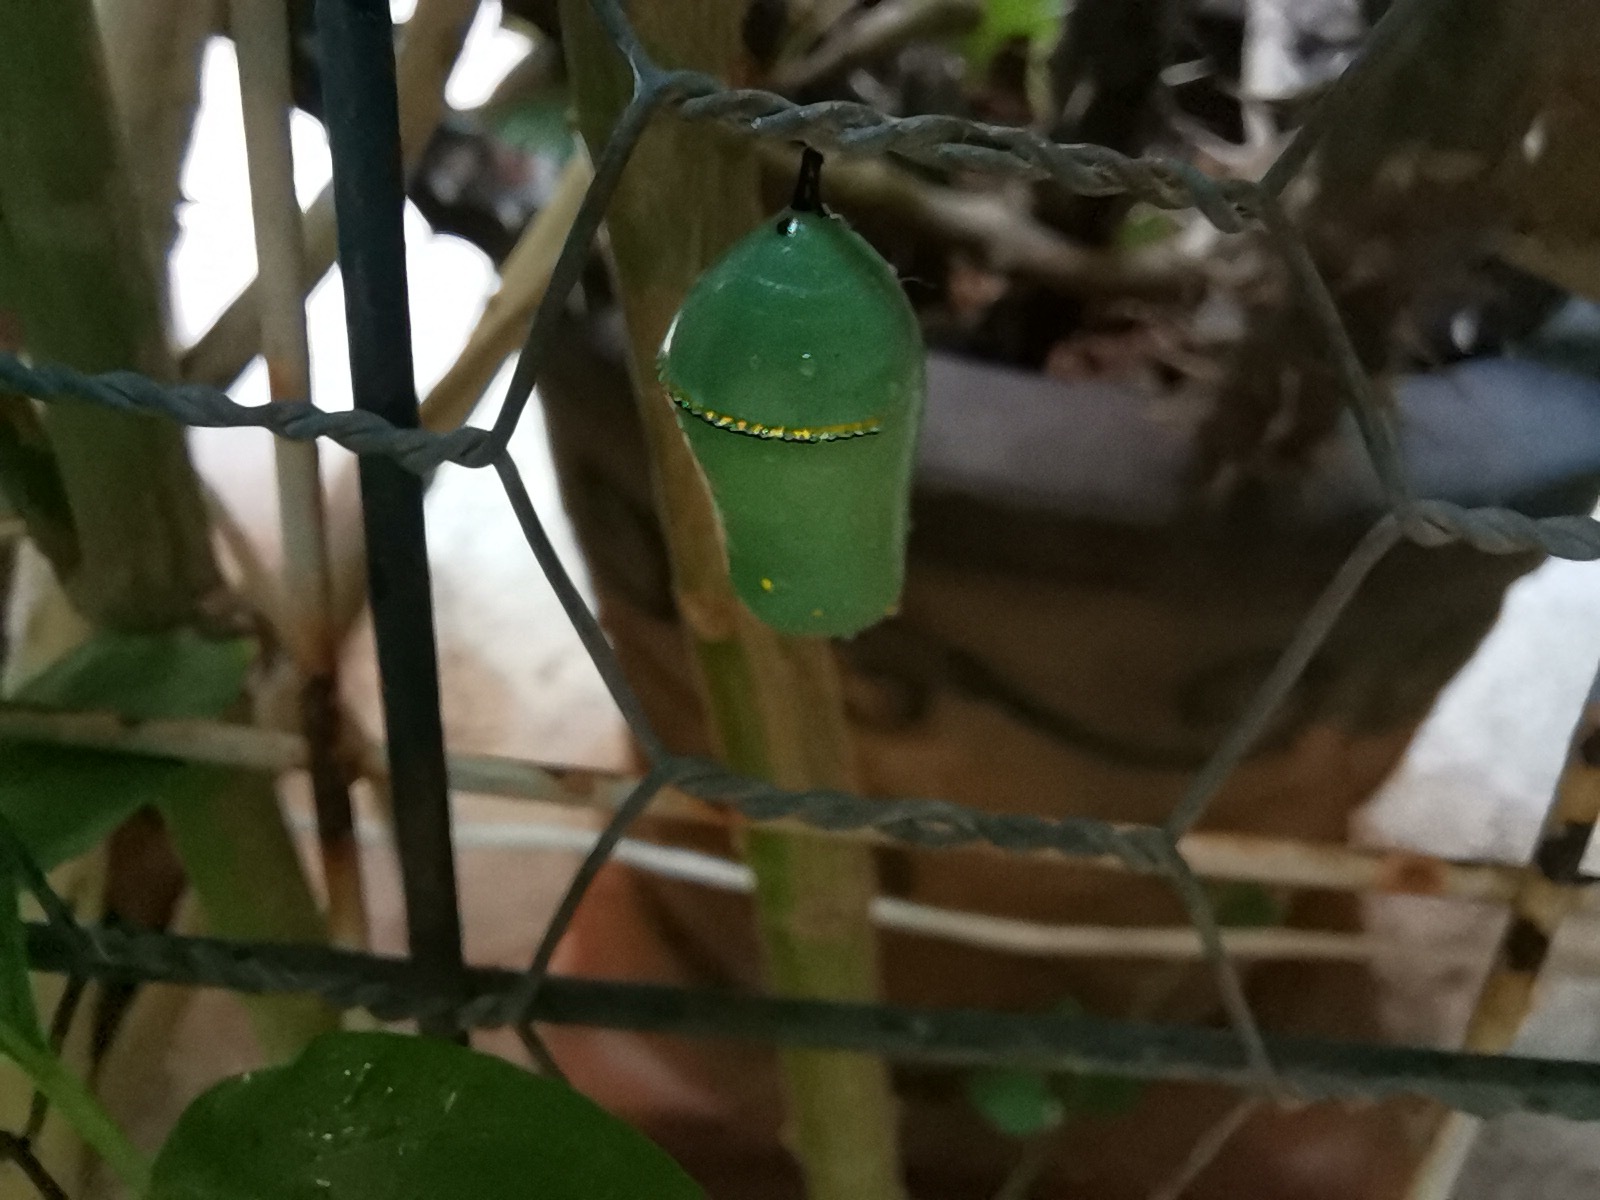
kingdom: Animalia
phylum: Arthropoda
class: Insecta
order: Lepidoptera
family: Nymphalidae
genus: Danaus
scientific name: Danaus plexippus
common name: Monarch
